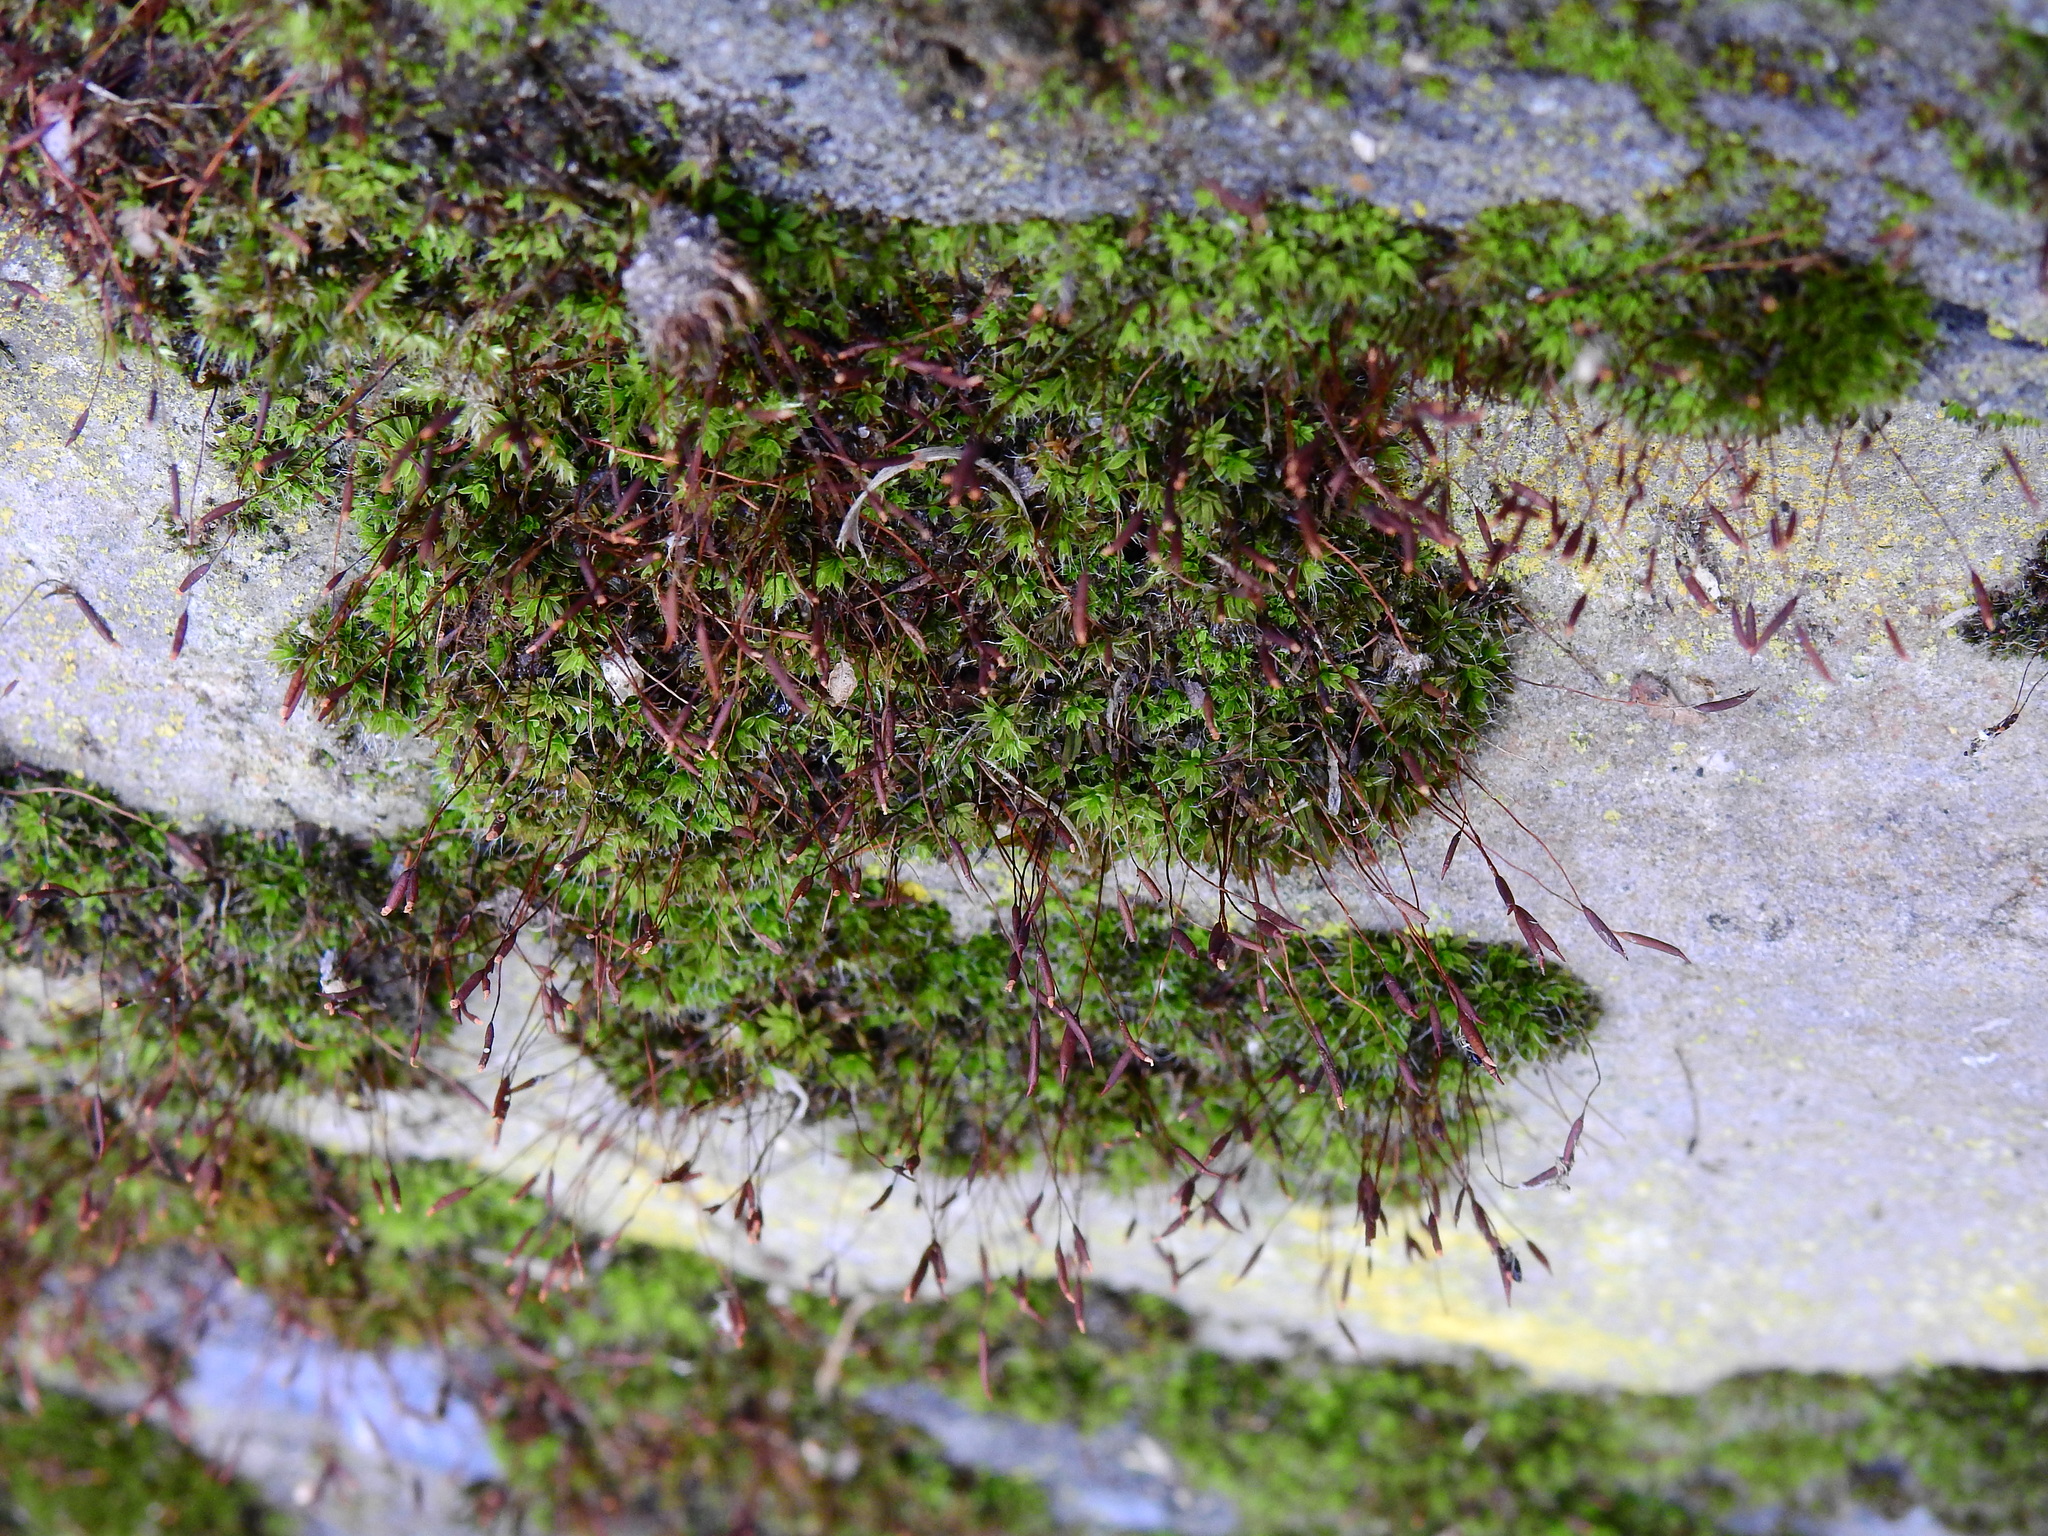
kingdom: Plantae
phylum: Bryophyta
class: Bryopsida
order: Pottiales
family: Pottiaceae
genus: Tortula
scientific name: Tortula muralis
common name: Wall screw-moss
